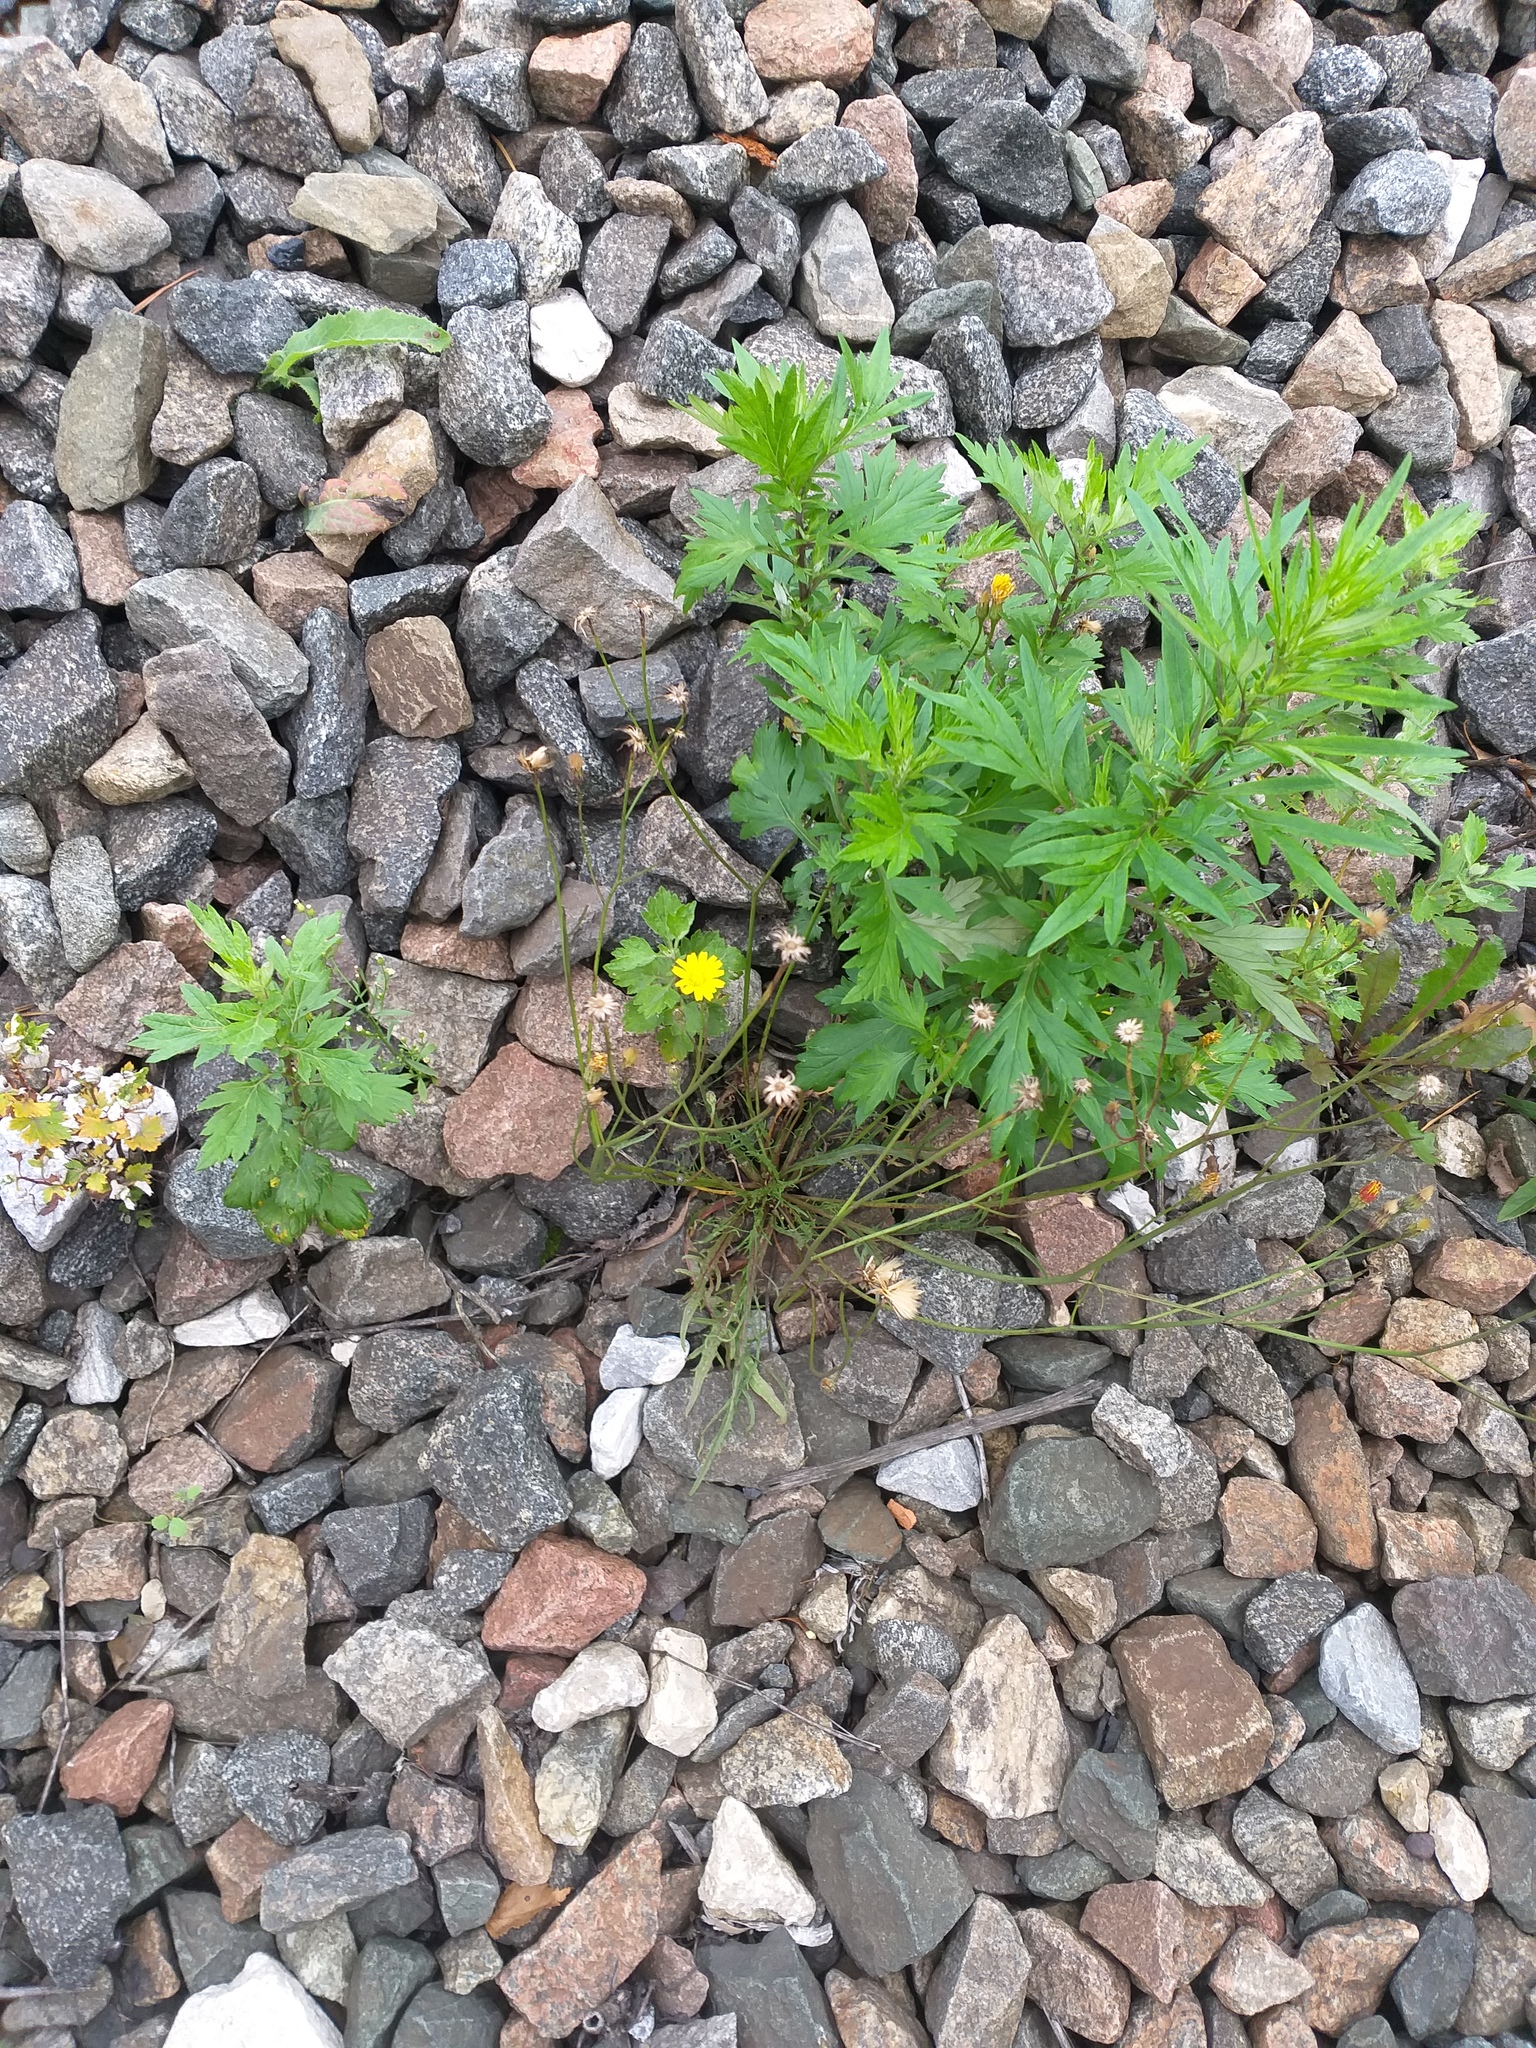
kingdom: Plantae
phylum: Tracheophyta
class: Magnoliopsida
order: Asterales
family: Asteraceae
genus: Scorzoneroides
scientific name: Scorzoneroides autumnalis
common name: Autumn hawkbit
